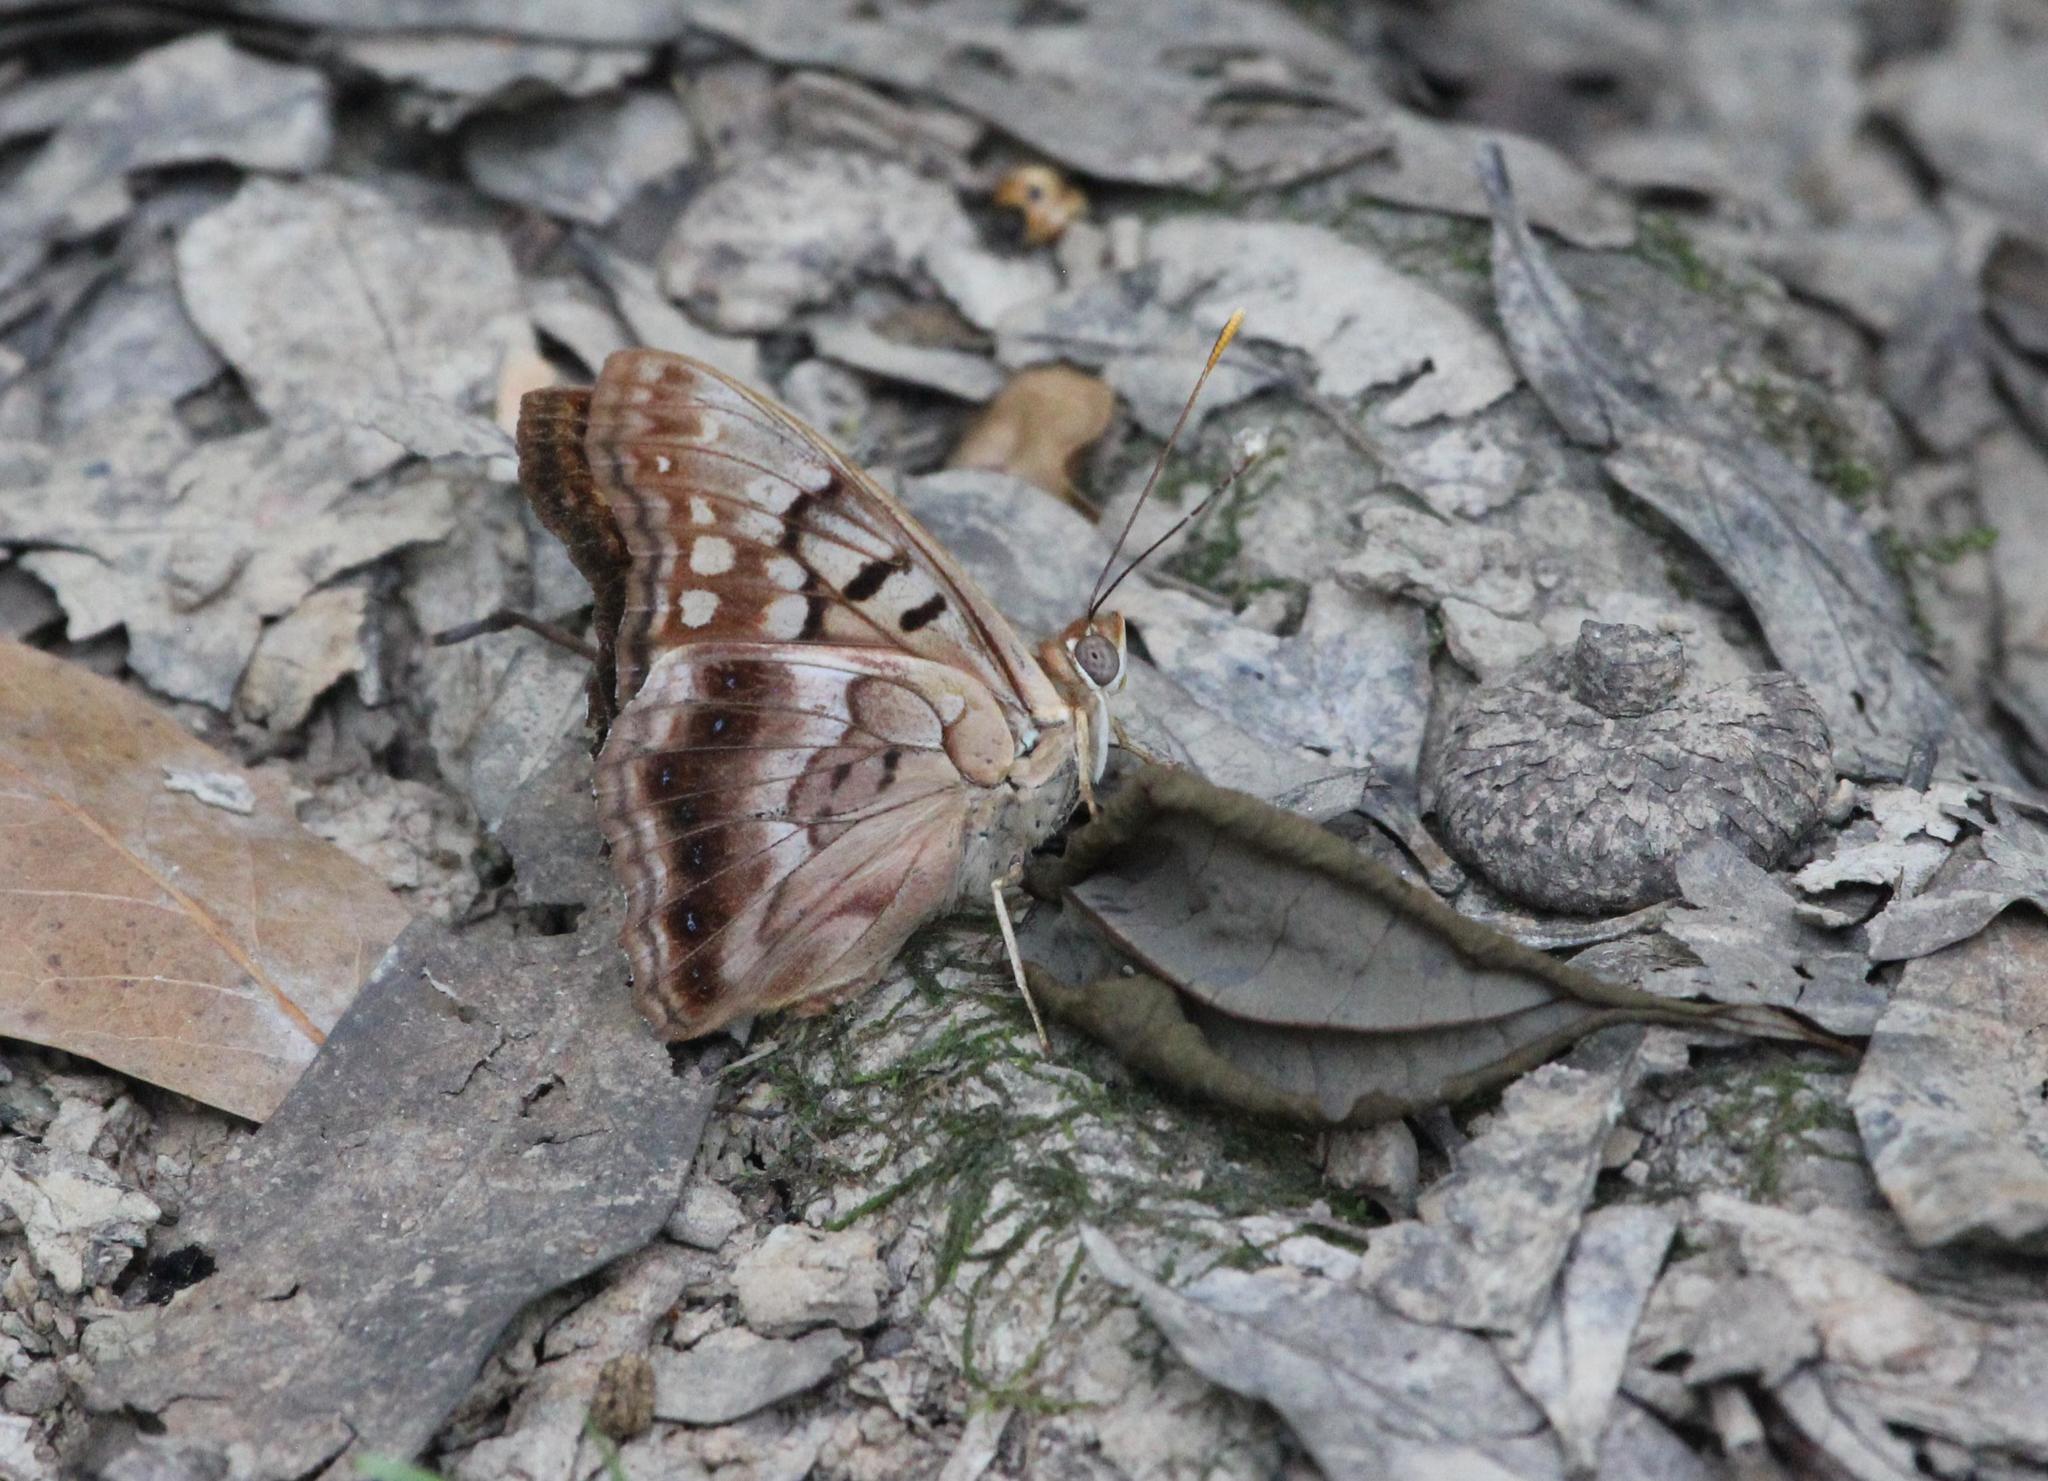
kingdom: Animalia
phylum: Arthropoda
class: Insecta
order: Lepidoptera
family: Nymphalidae
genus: Asterocampa
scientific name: Asterocampa clyton
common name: Tawny emperor
